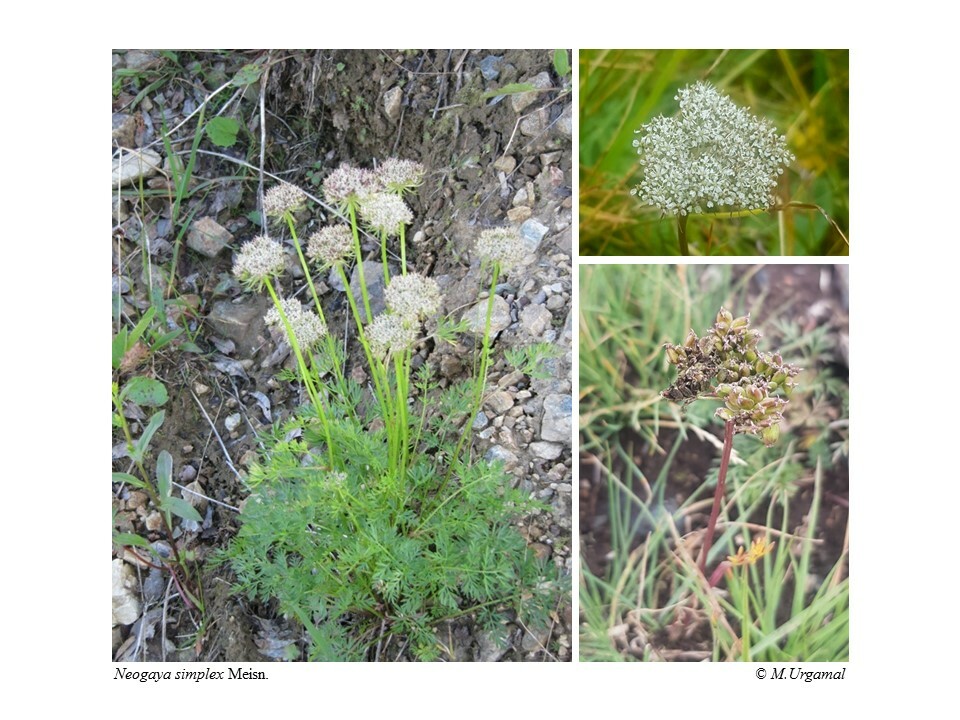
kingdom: Plantae
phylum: Tracheophyta
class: Magnoliopsida
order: Apiales
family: Apiaceae
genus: Pachypleurum
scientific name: Pachypleurum mutellinoides
